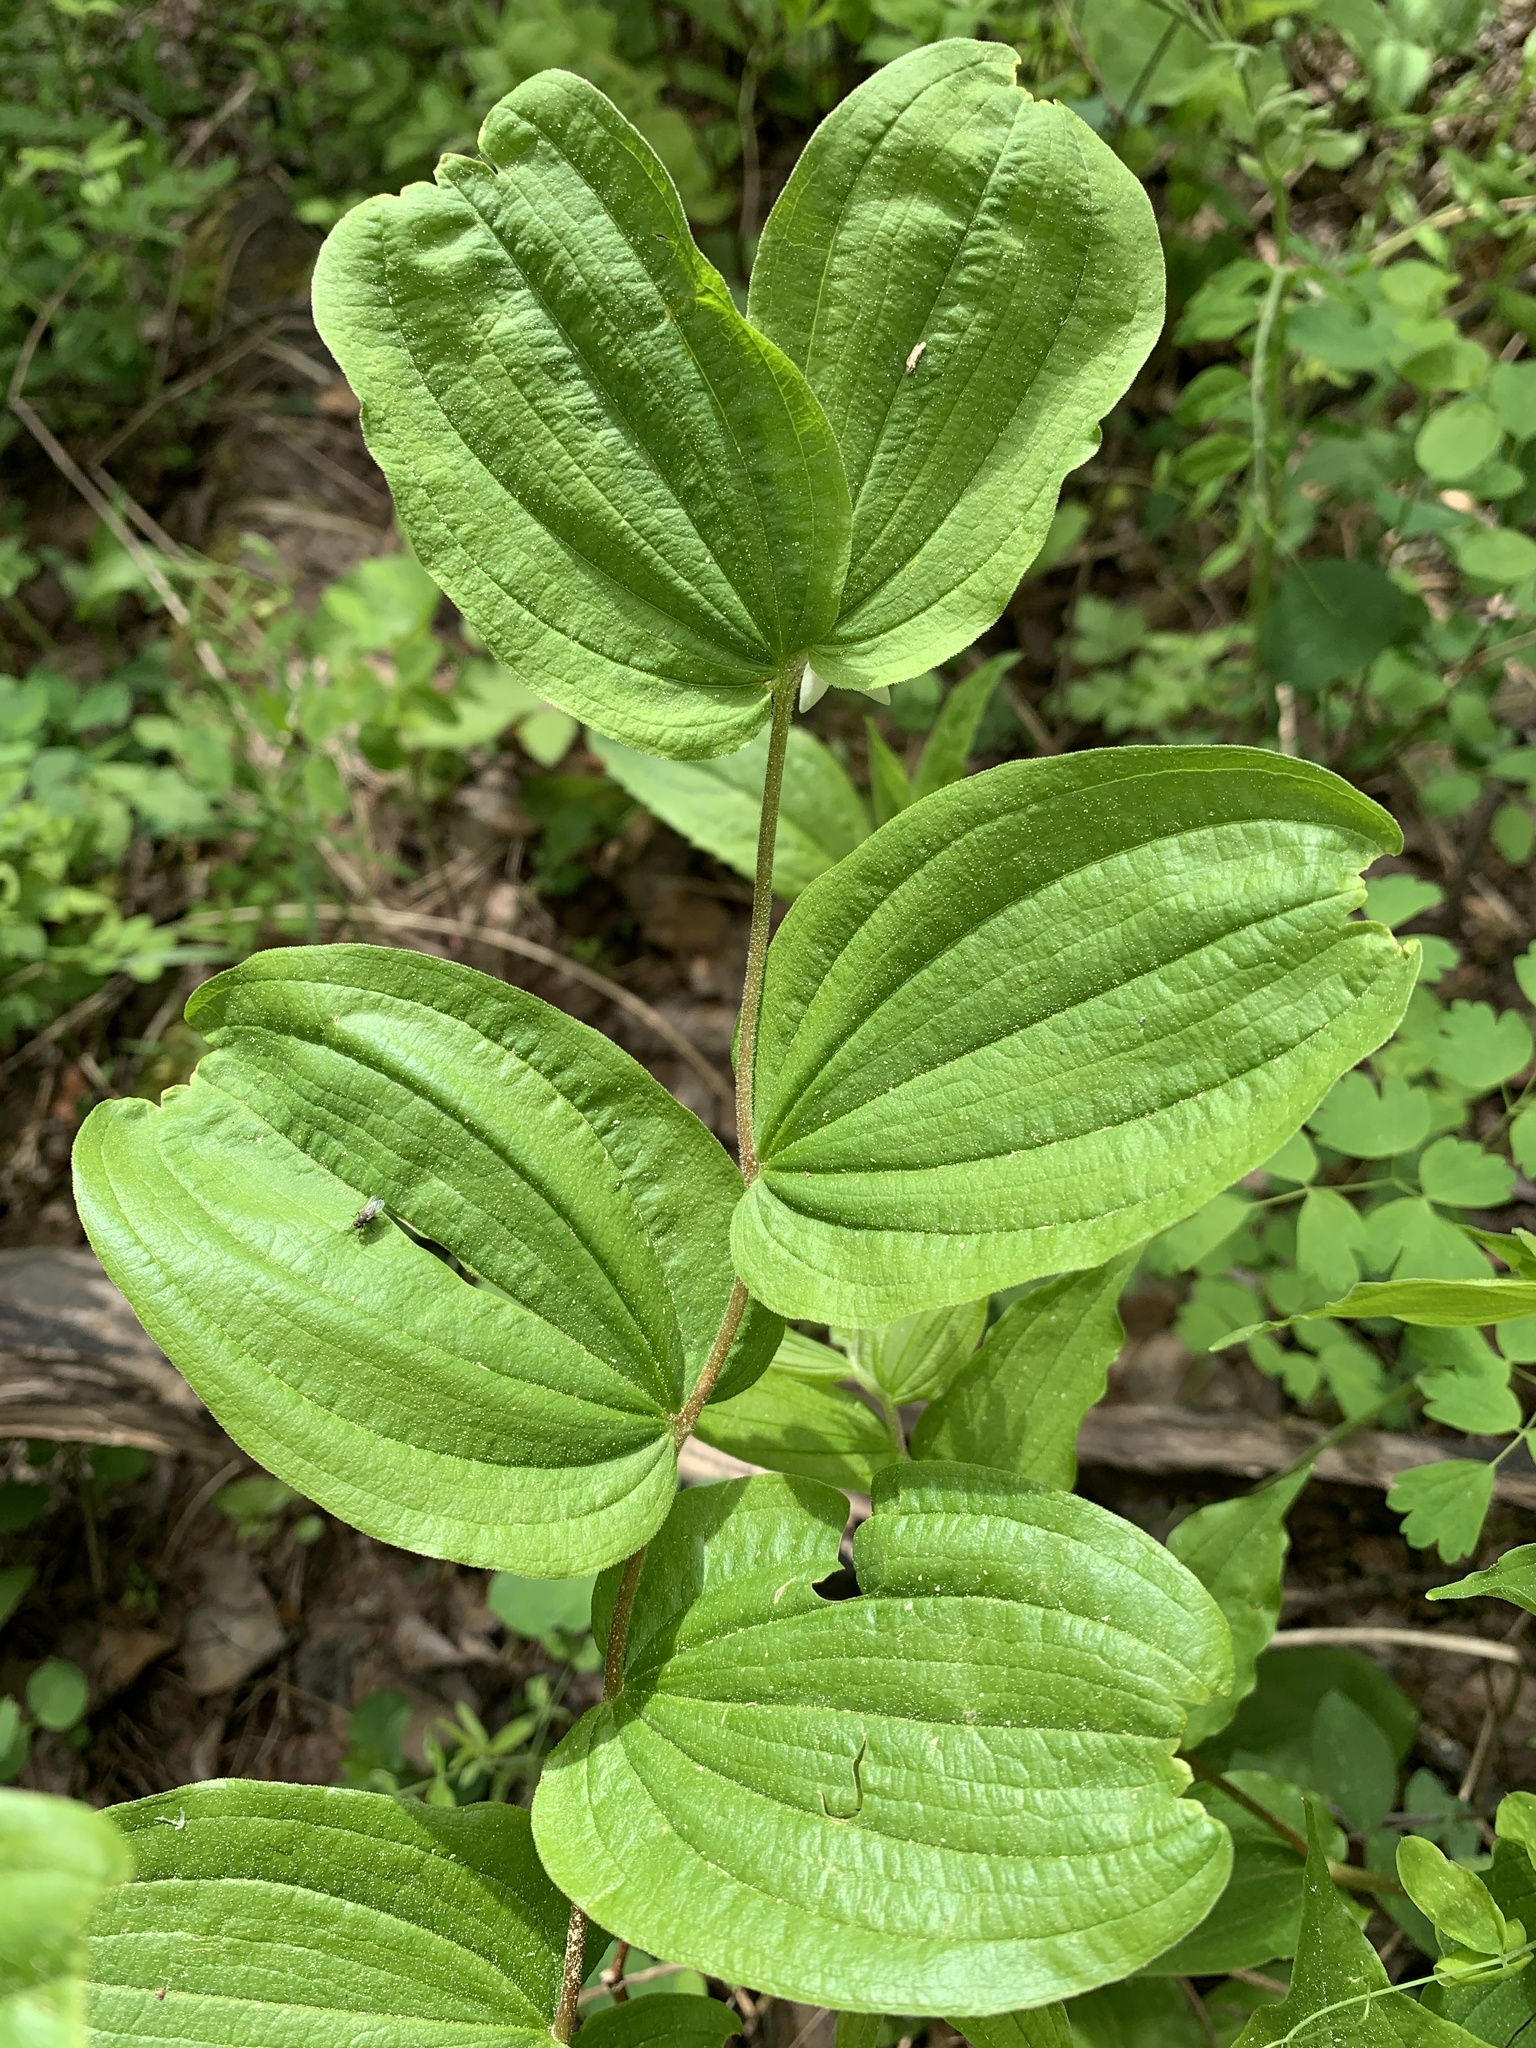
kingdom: Plantae
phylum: Tracheophyta
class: Liliopsida
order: Liliales
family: Liliaceae
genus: Prosartes
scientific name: Prosartes hookeri
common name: Fairy-bells
